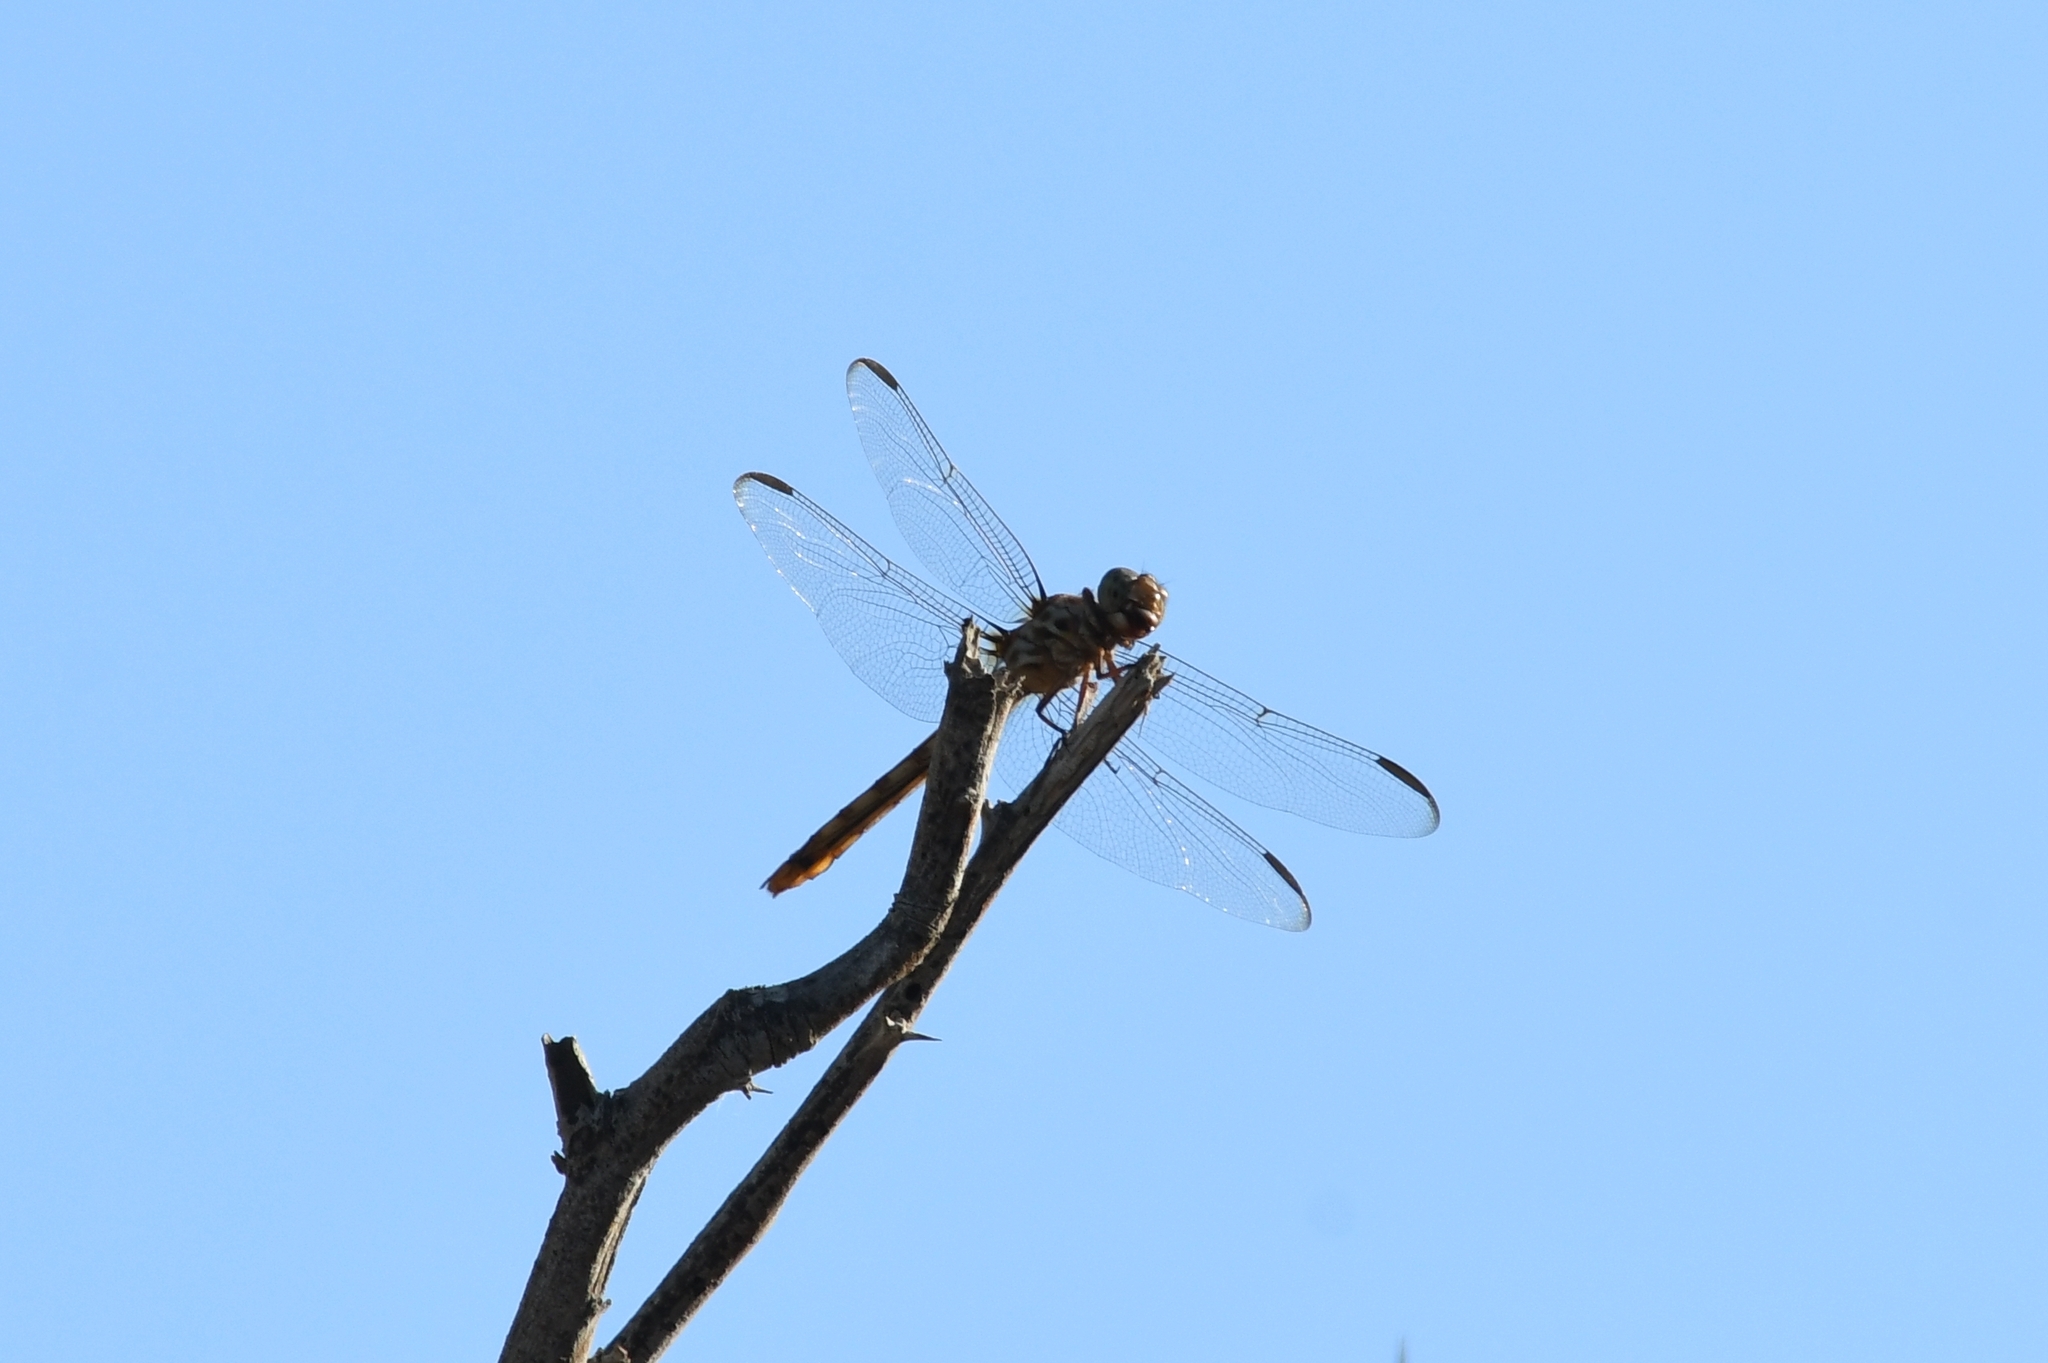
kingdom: Animalia
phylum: Arthropoda
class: Insecta
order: Odonata
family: Libellulidae
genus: Orthemis
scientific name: Orthemis ferruginea
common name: Roseate skimmer
